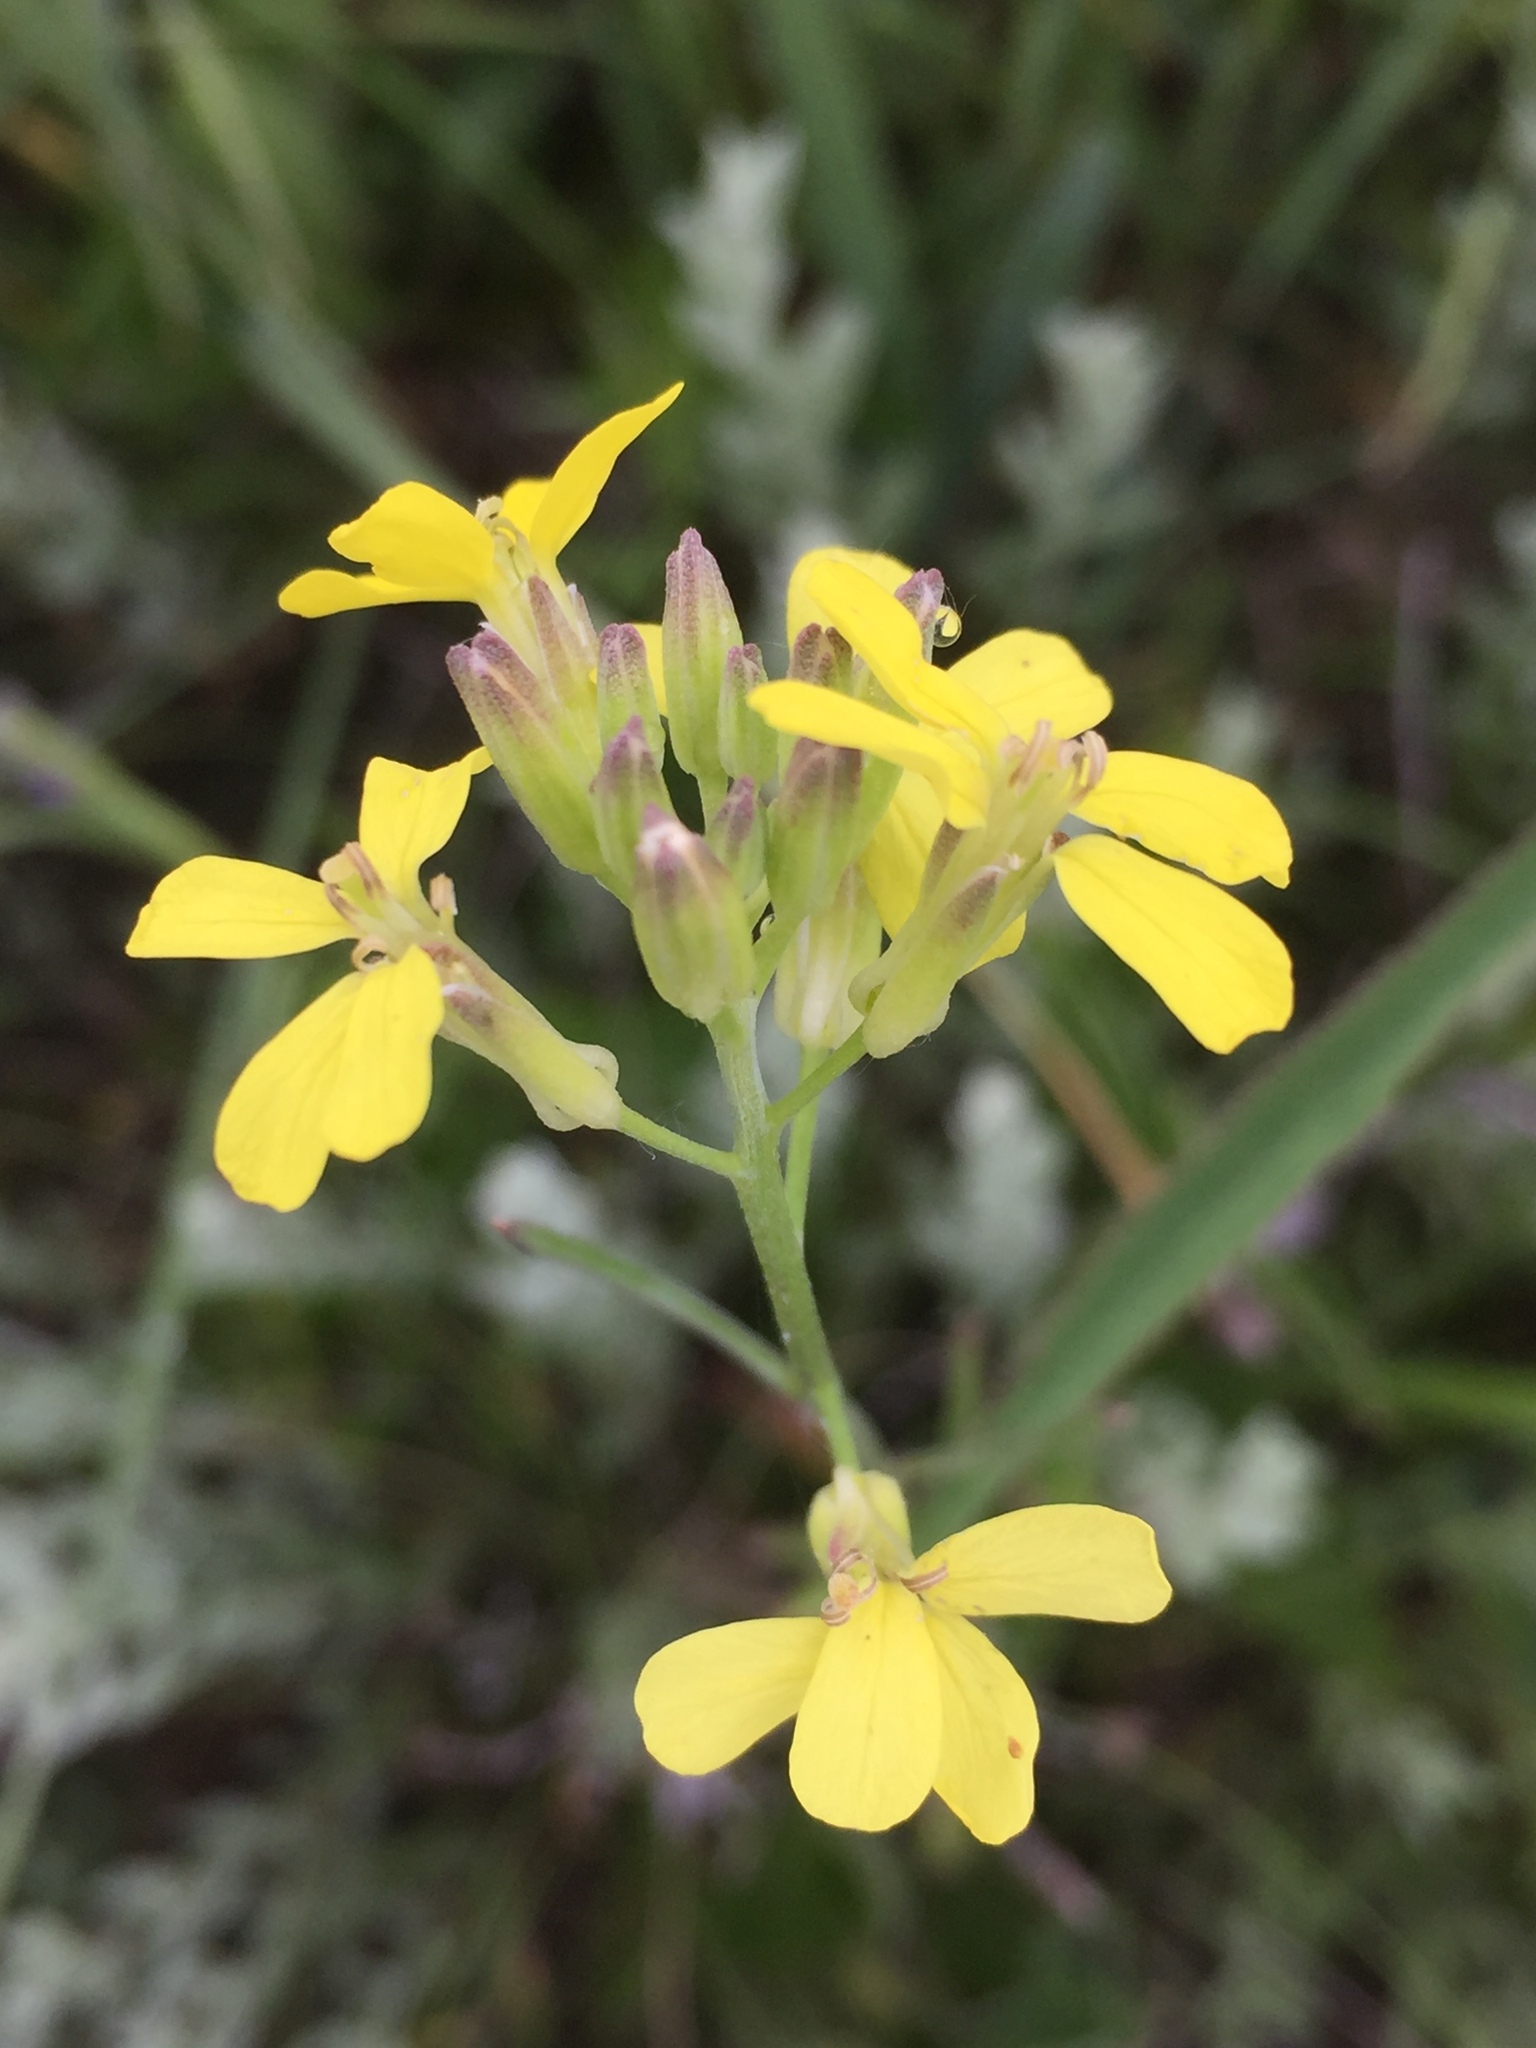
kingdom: Plantae
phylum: Tracheophyta
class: Magnoliopsida
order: Brassicales
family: Brassicaceae
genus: Erysimum
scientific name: Erysimum diffusum
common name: Diffuse wallflower
